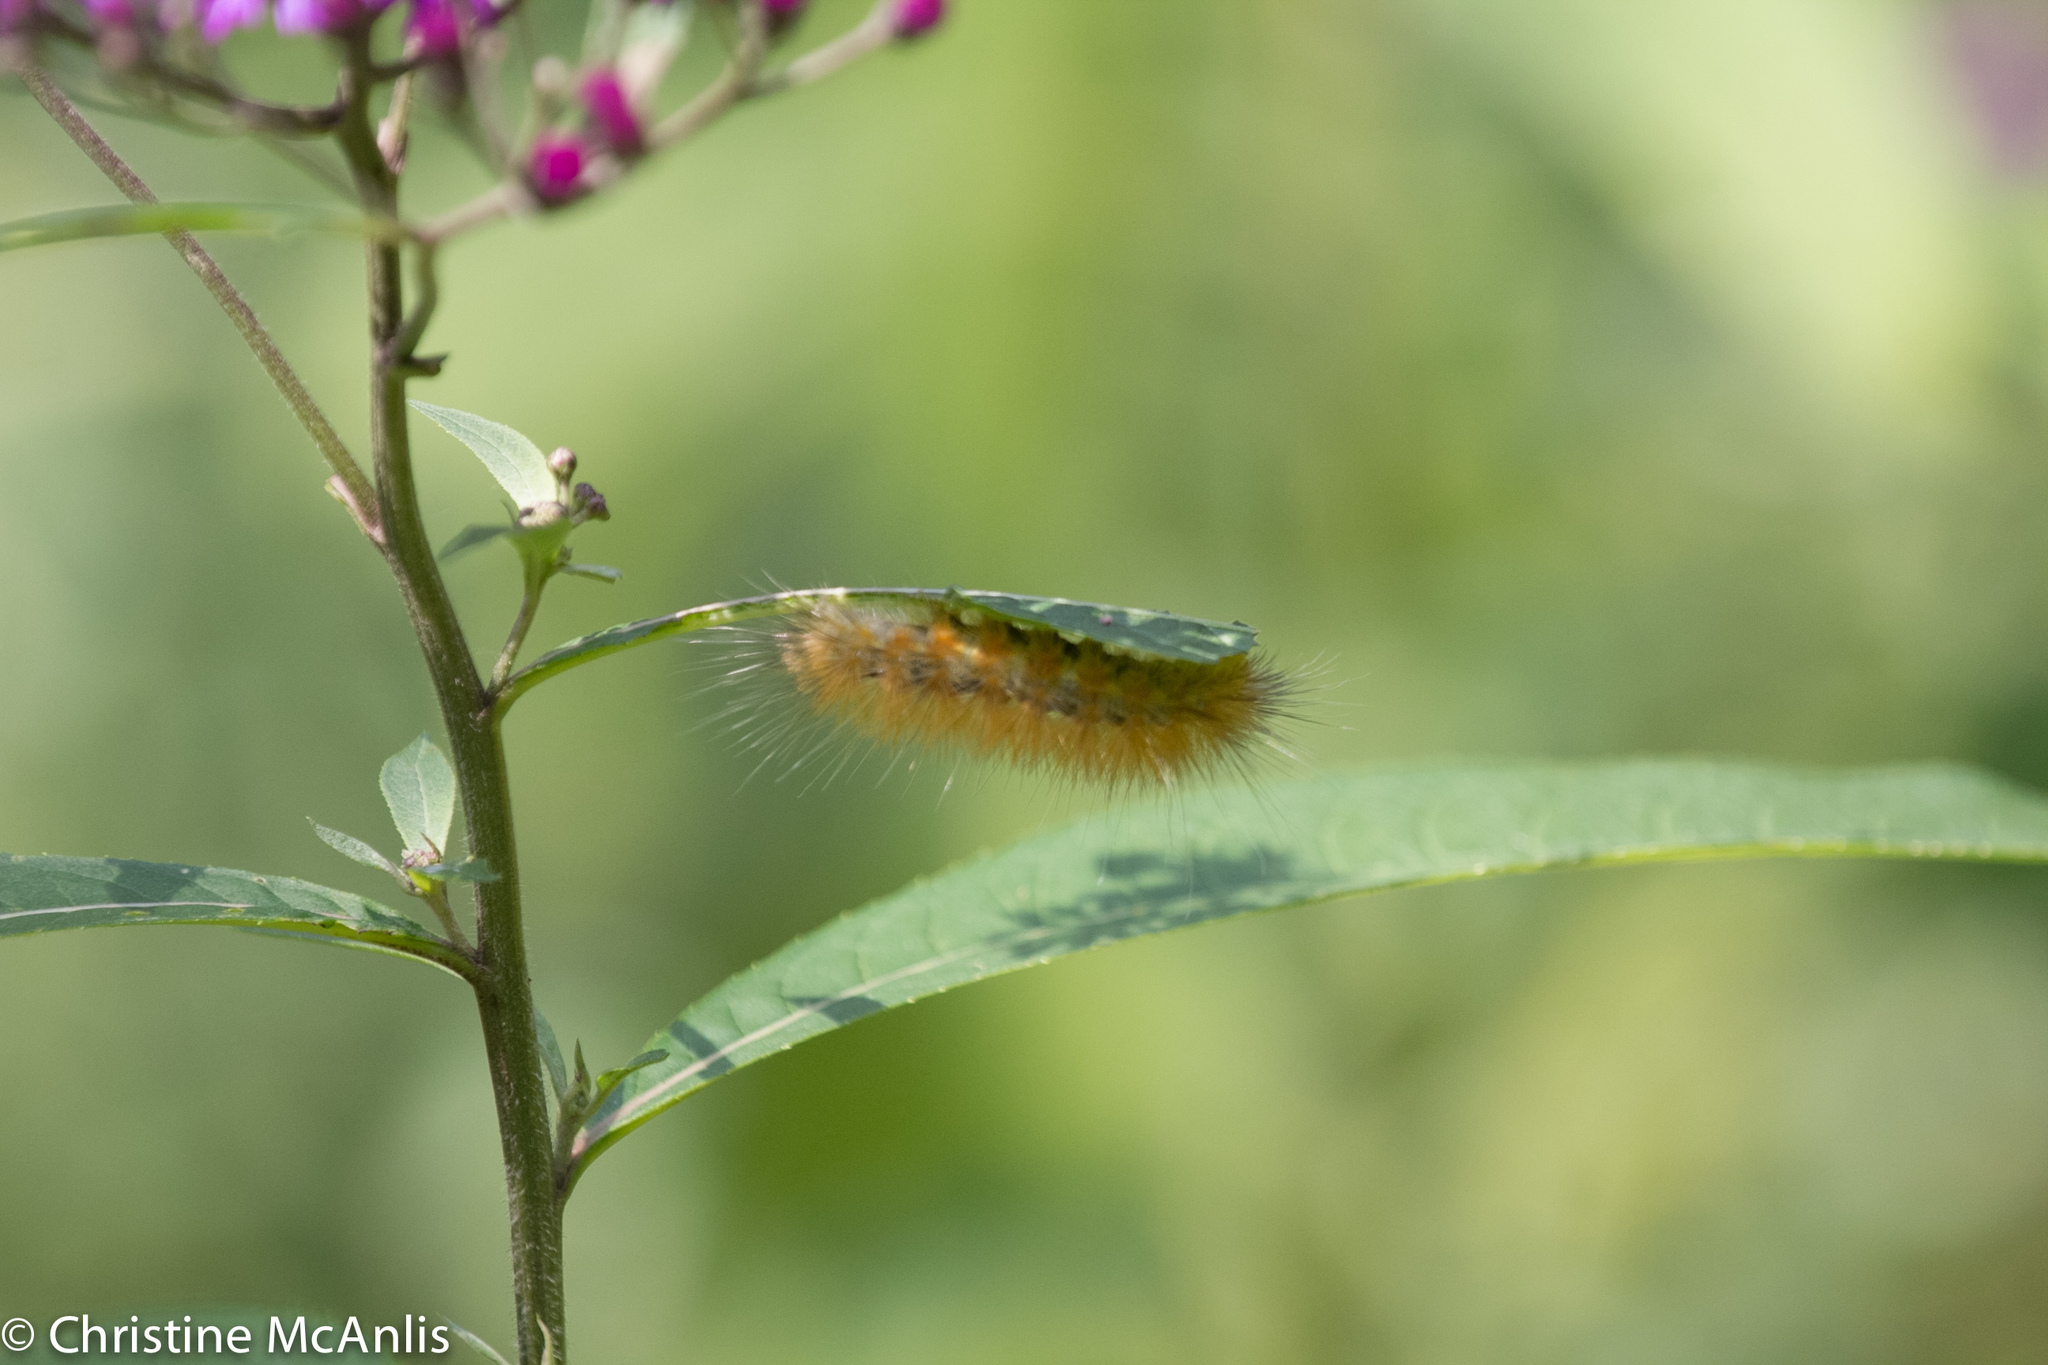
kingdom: Animalia
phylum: Arthropoda
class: Insecta
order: Lepidoptera
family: Erebidae
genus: Spilosoma
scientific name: Spilosoma virginica
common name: Virginia tiger moth
